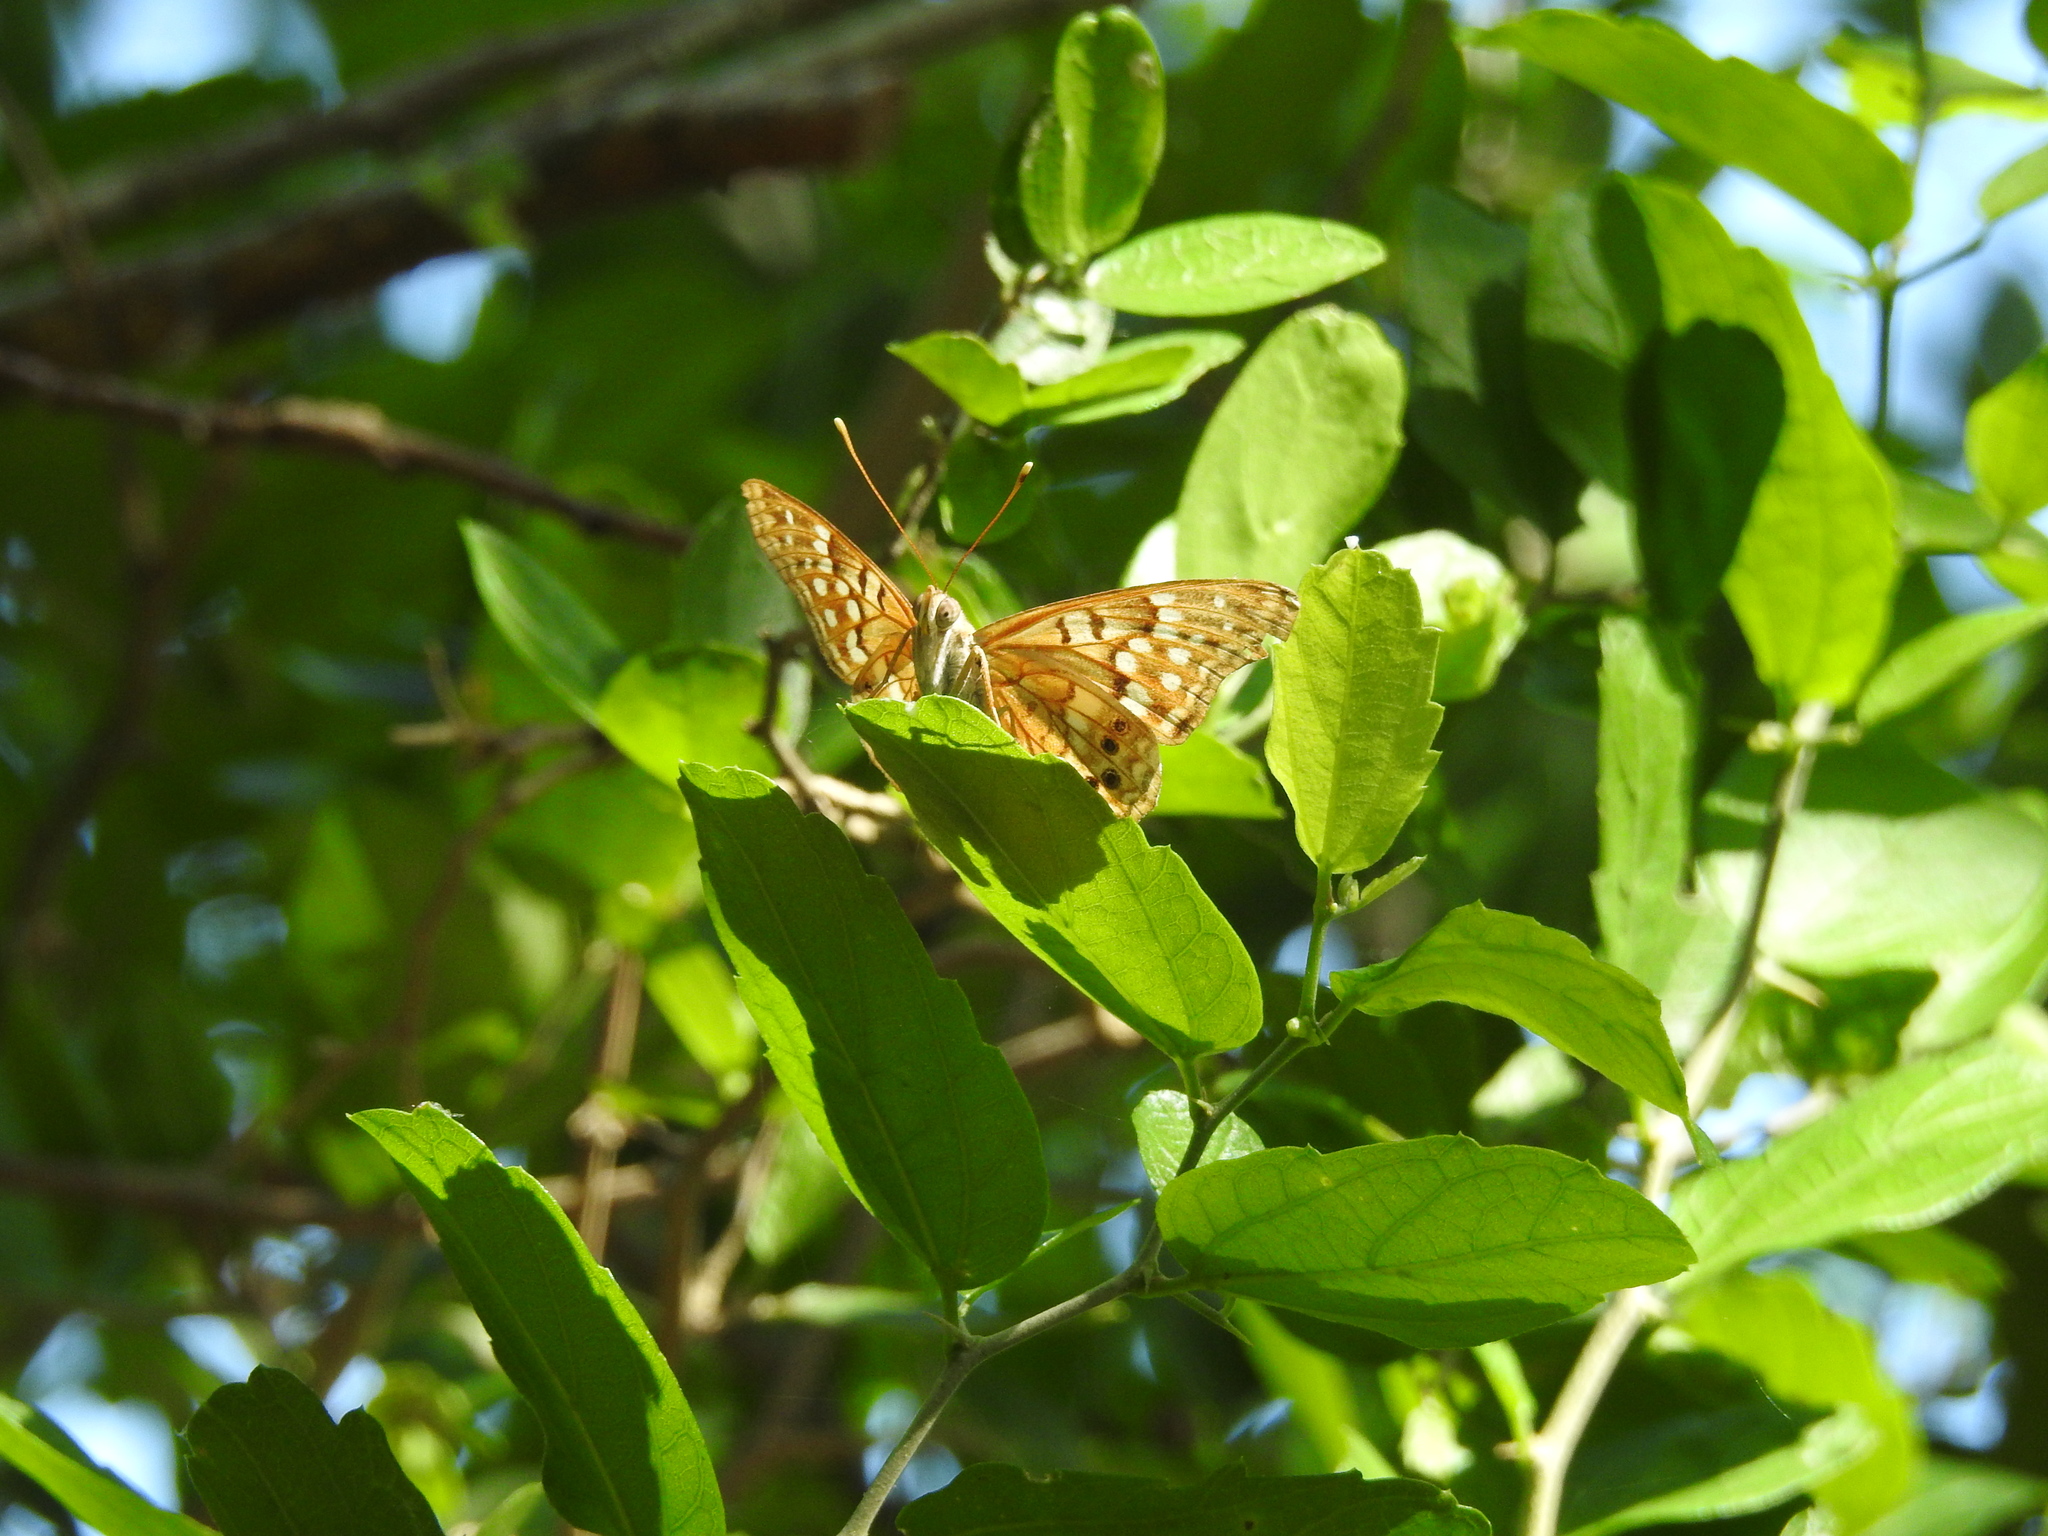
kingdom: Animalia
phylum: Arthropoda
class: Insecta
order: Lepidoptera
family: Nymphalidae
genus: Asterocampa
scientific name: Asterocampa clyton
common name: Tawny emperor
